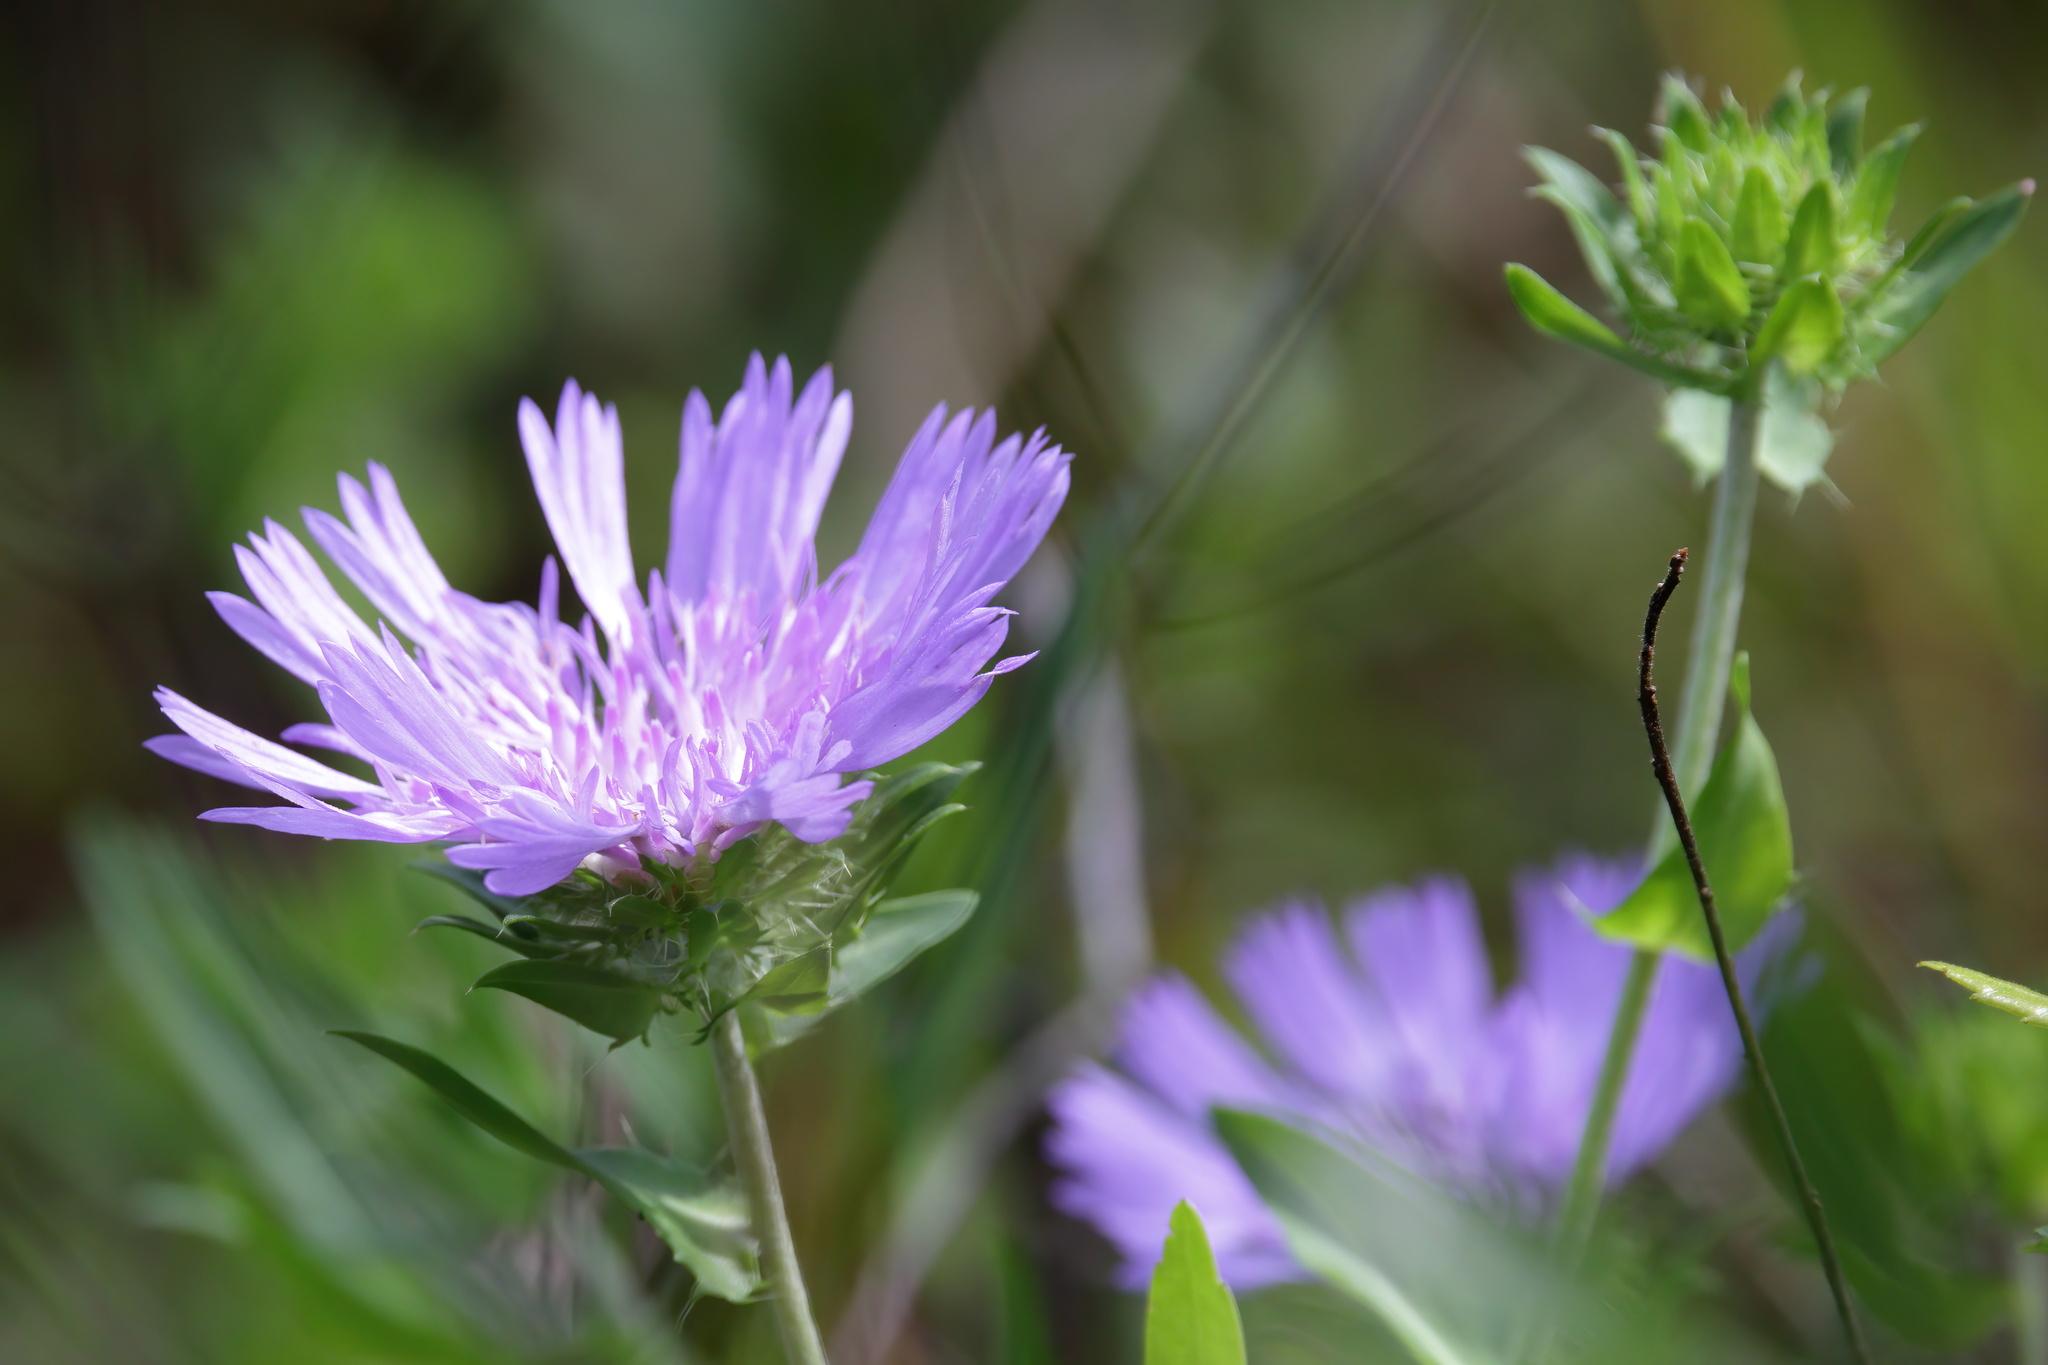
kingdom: Plantae
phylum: Tracheophyta
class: Magnoliopsida
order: Asterales
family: Asteraceae
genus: Stokesia
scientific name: Stokesia laevis
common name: Stokes'-aster
